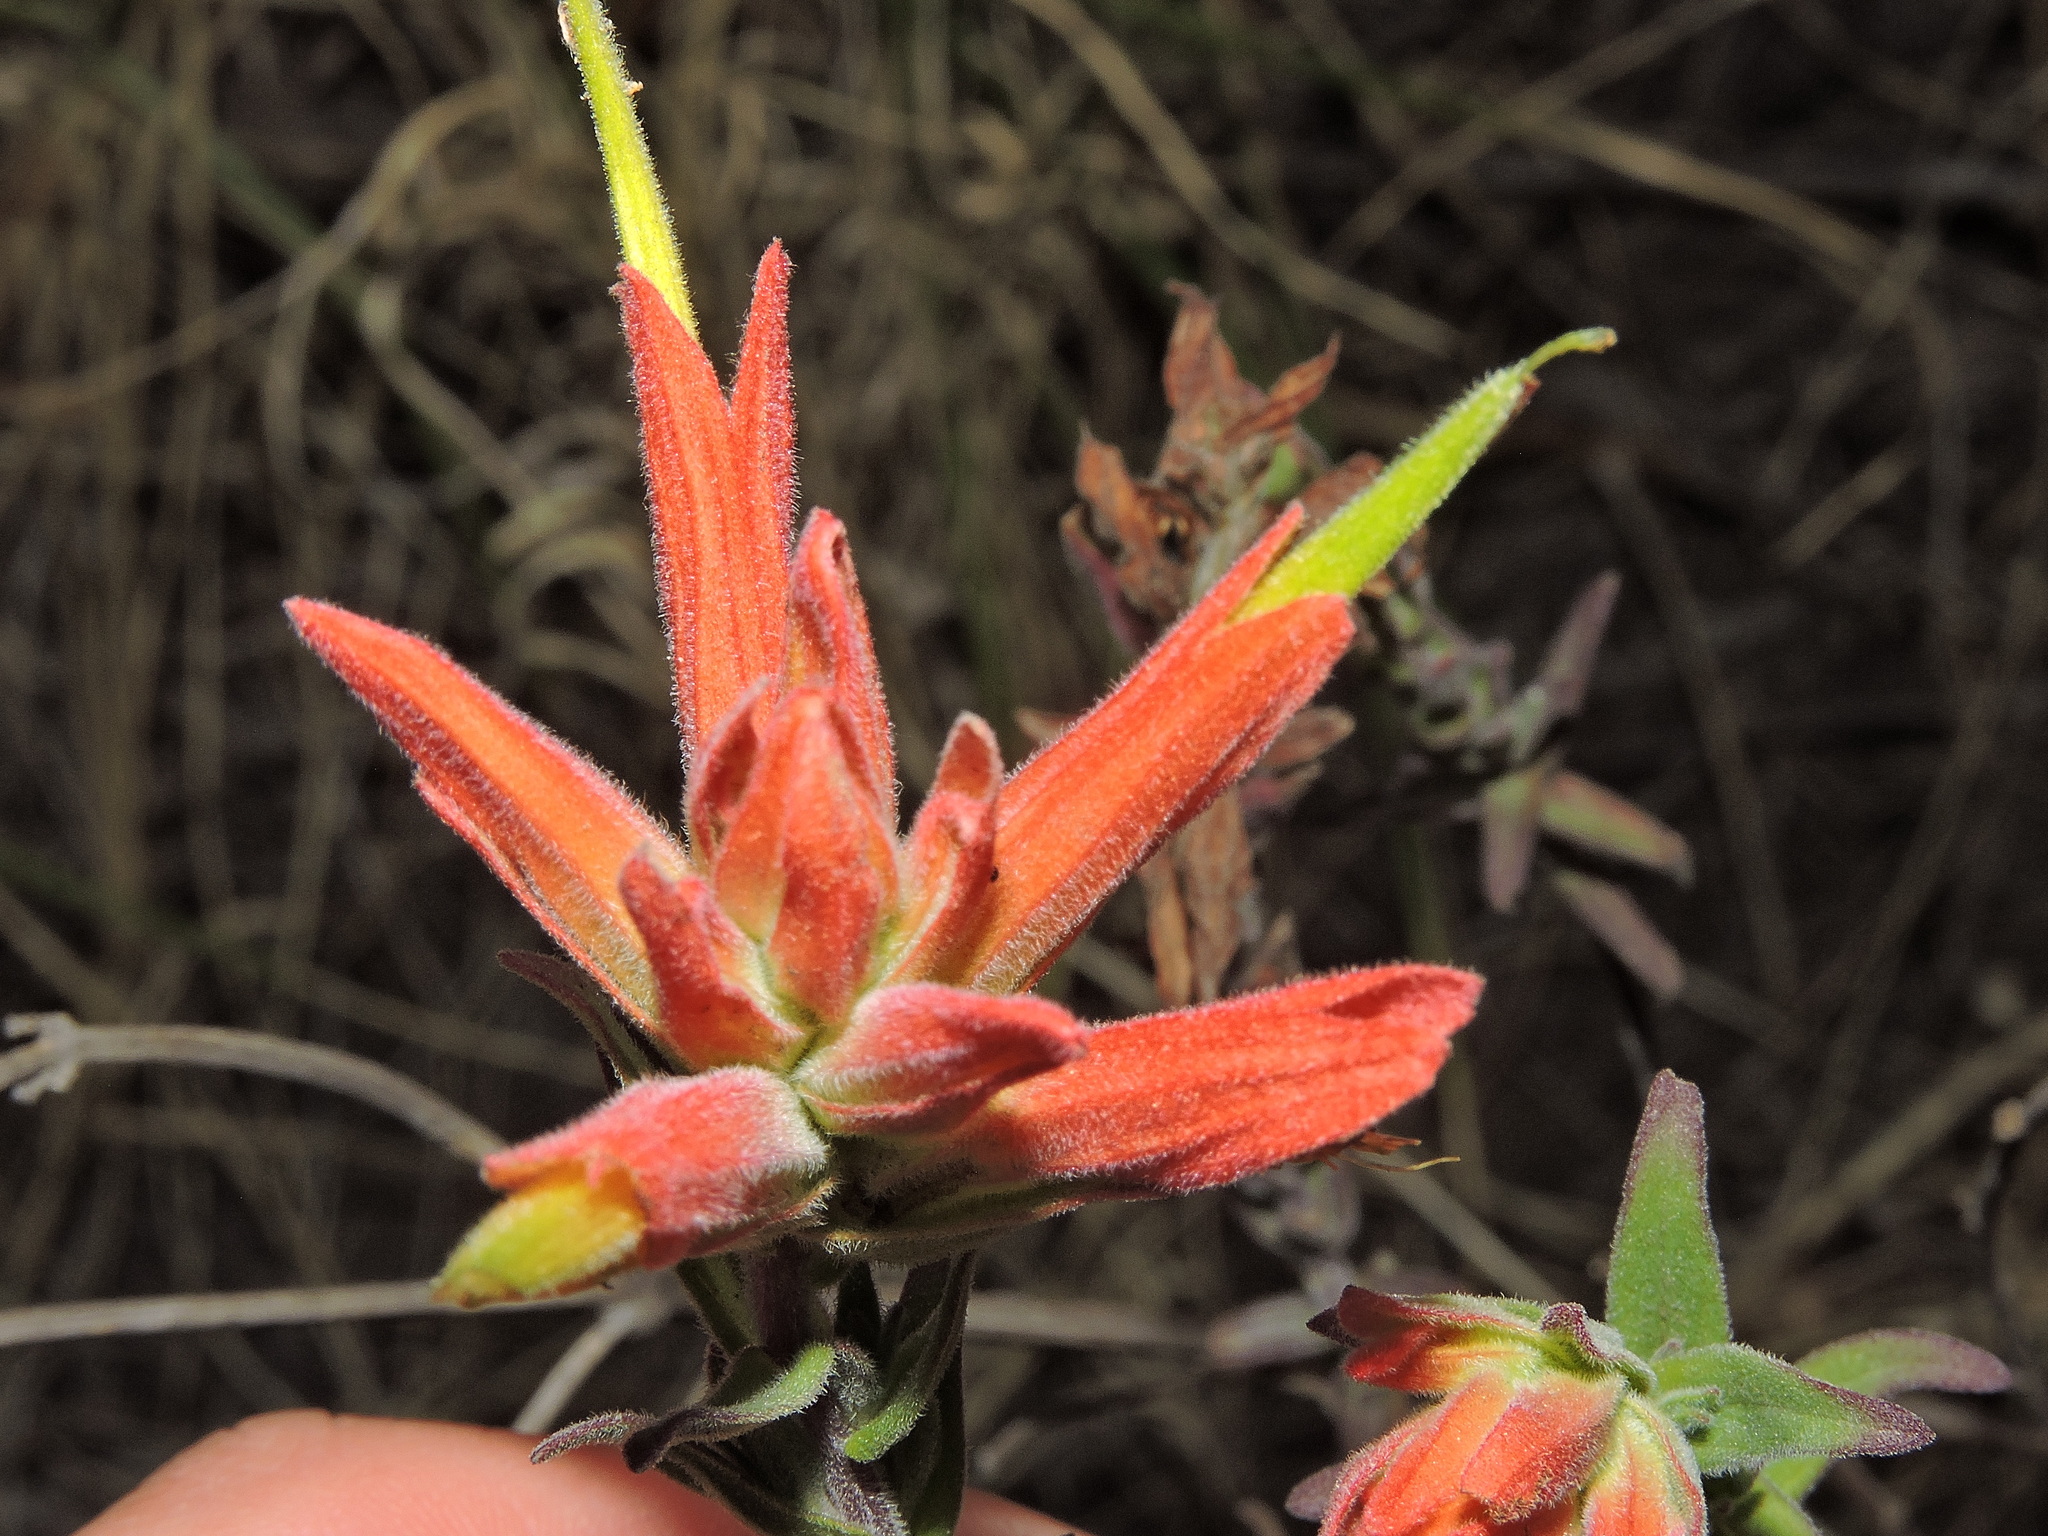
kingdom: Plantae
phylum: Tracheophyta
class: Magnoliopsida
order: Lamiales
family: Orobanchaceae
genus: Castilleja
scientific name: Castilleja tenuiflora
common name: Santa catalina indian paintbrush
